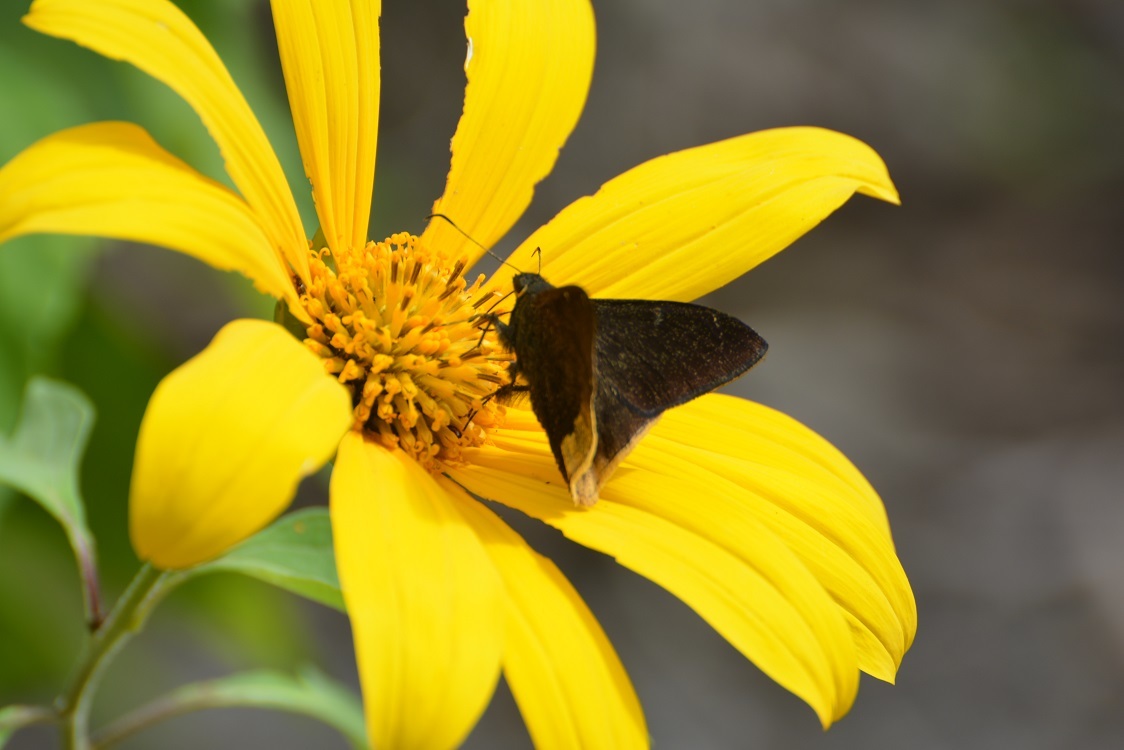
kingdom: Animalia
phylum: Arthropoda
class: Insecta
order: Lepidoptera
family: Hesperiidae
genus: Autochton
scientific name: Autochton Cecropterus phalaecus
